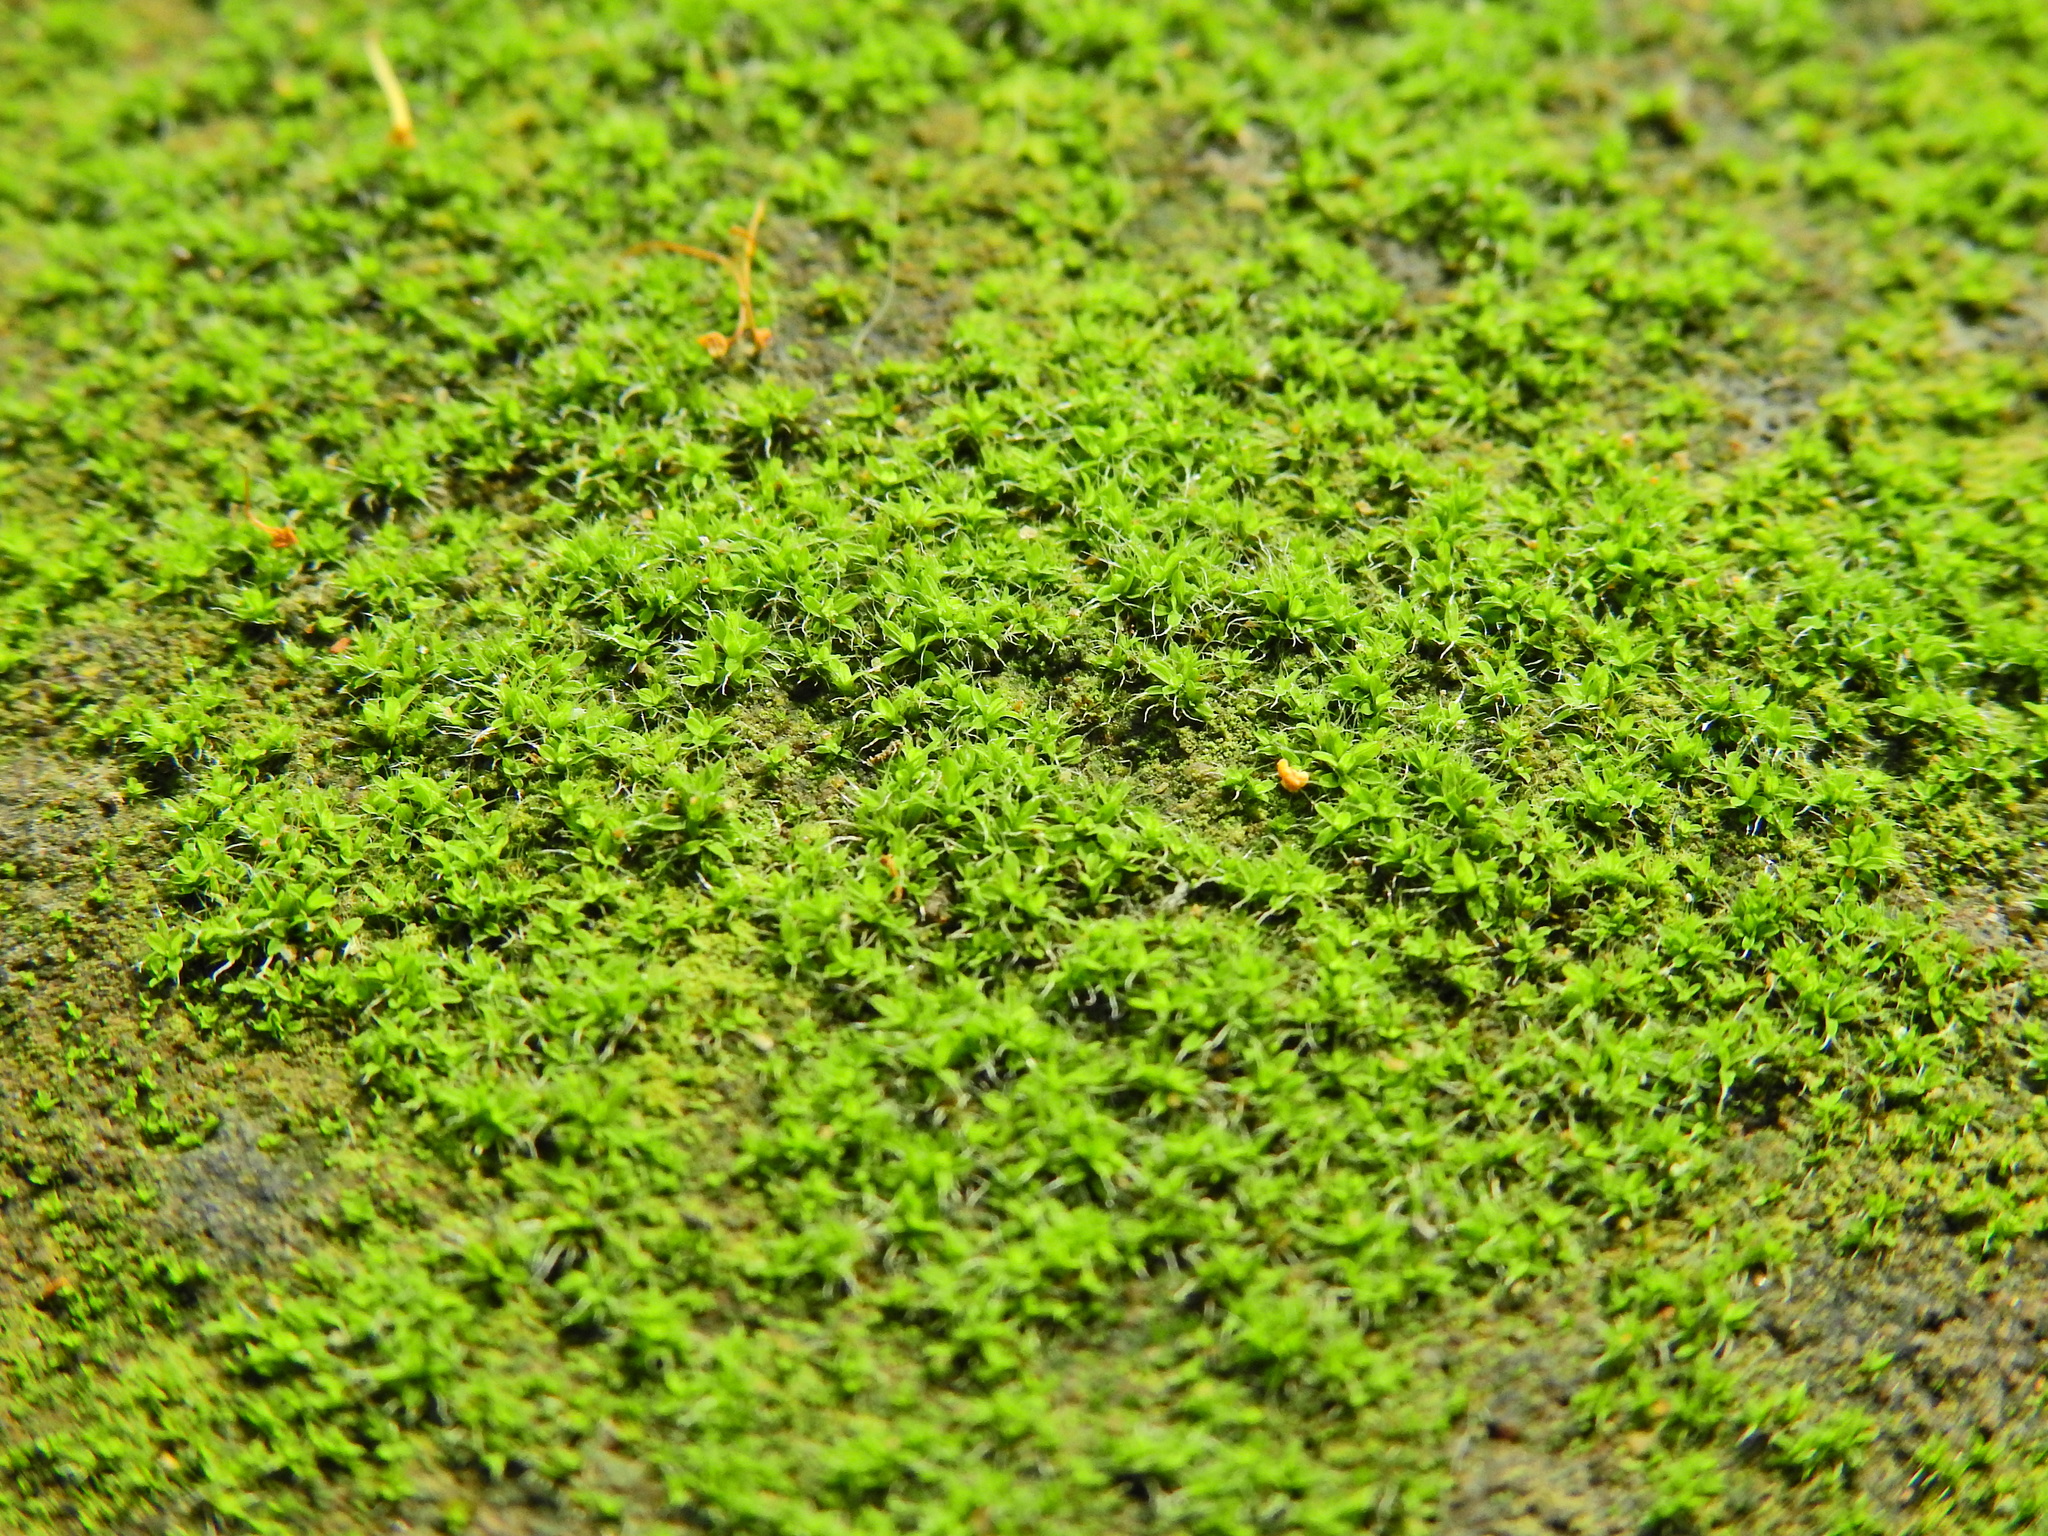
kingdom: Plantae
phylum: Bryophyta
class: Bryopsida
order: Pottiales
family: Pottiaceae
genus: Tortula
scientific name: Tortula muralis
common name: Wall screw-moss
